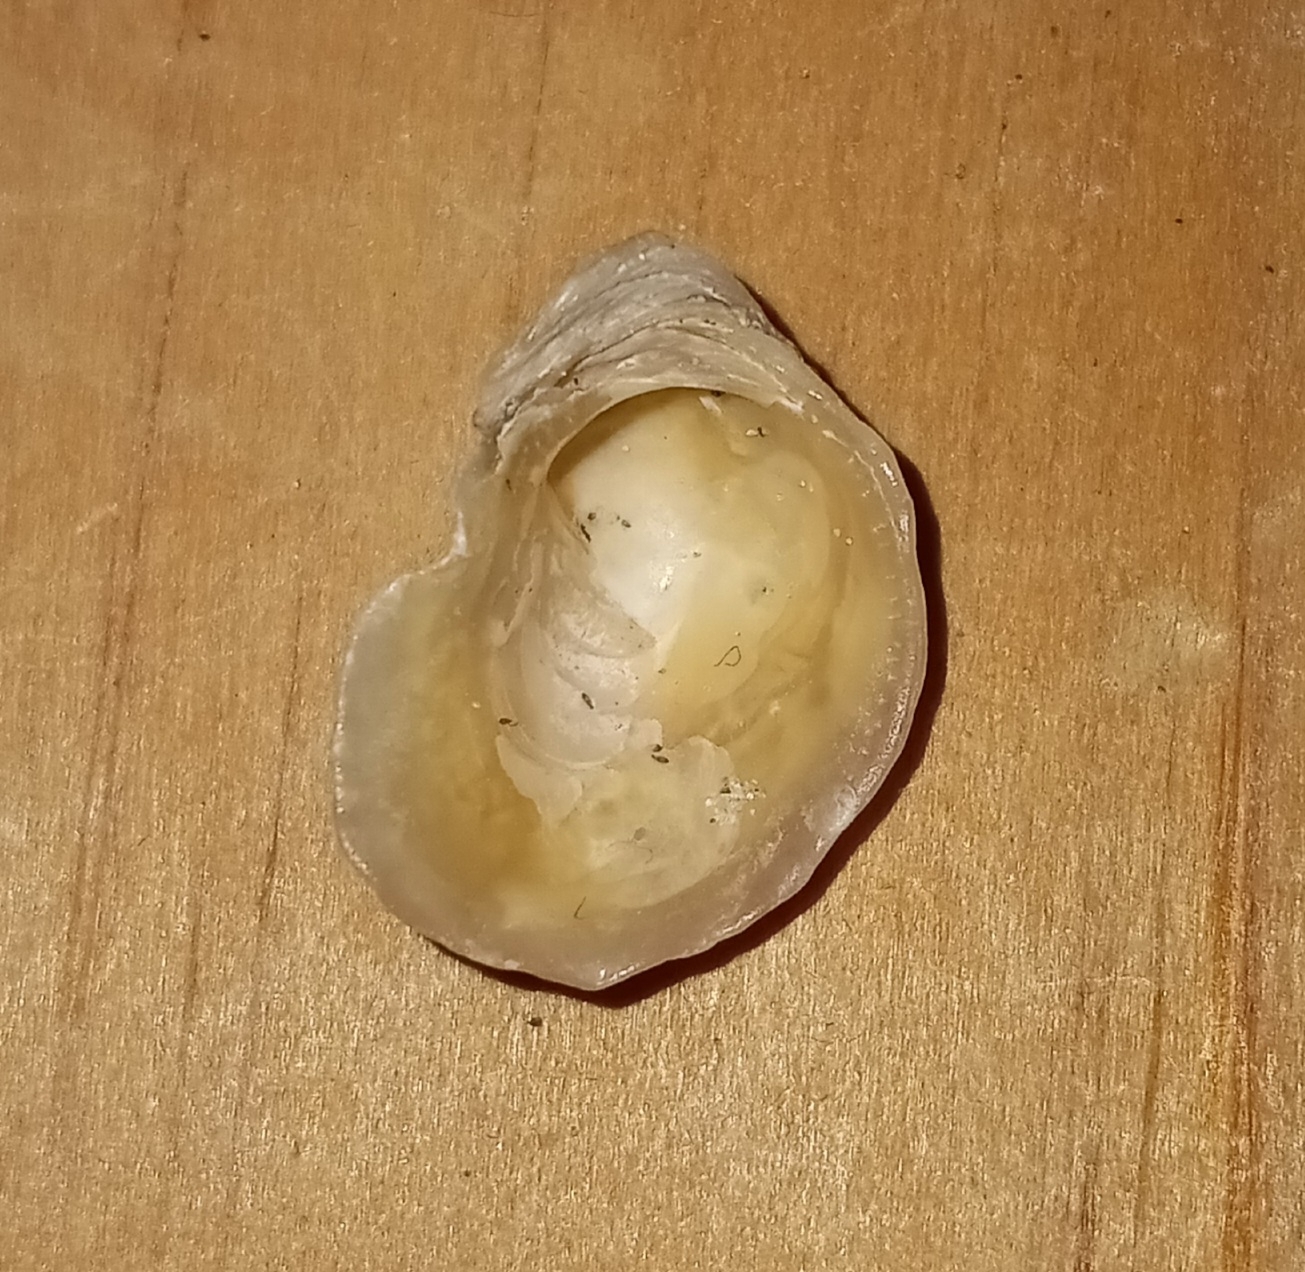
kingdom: Animalia
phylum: Mollusca
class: Bivalvia
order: Ostreida
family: Ostreidae
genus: Crassostrea
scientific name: Crassostrea virginica
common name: American oyster
